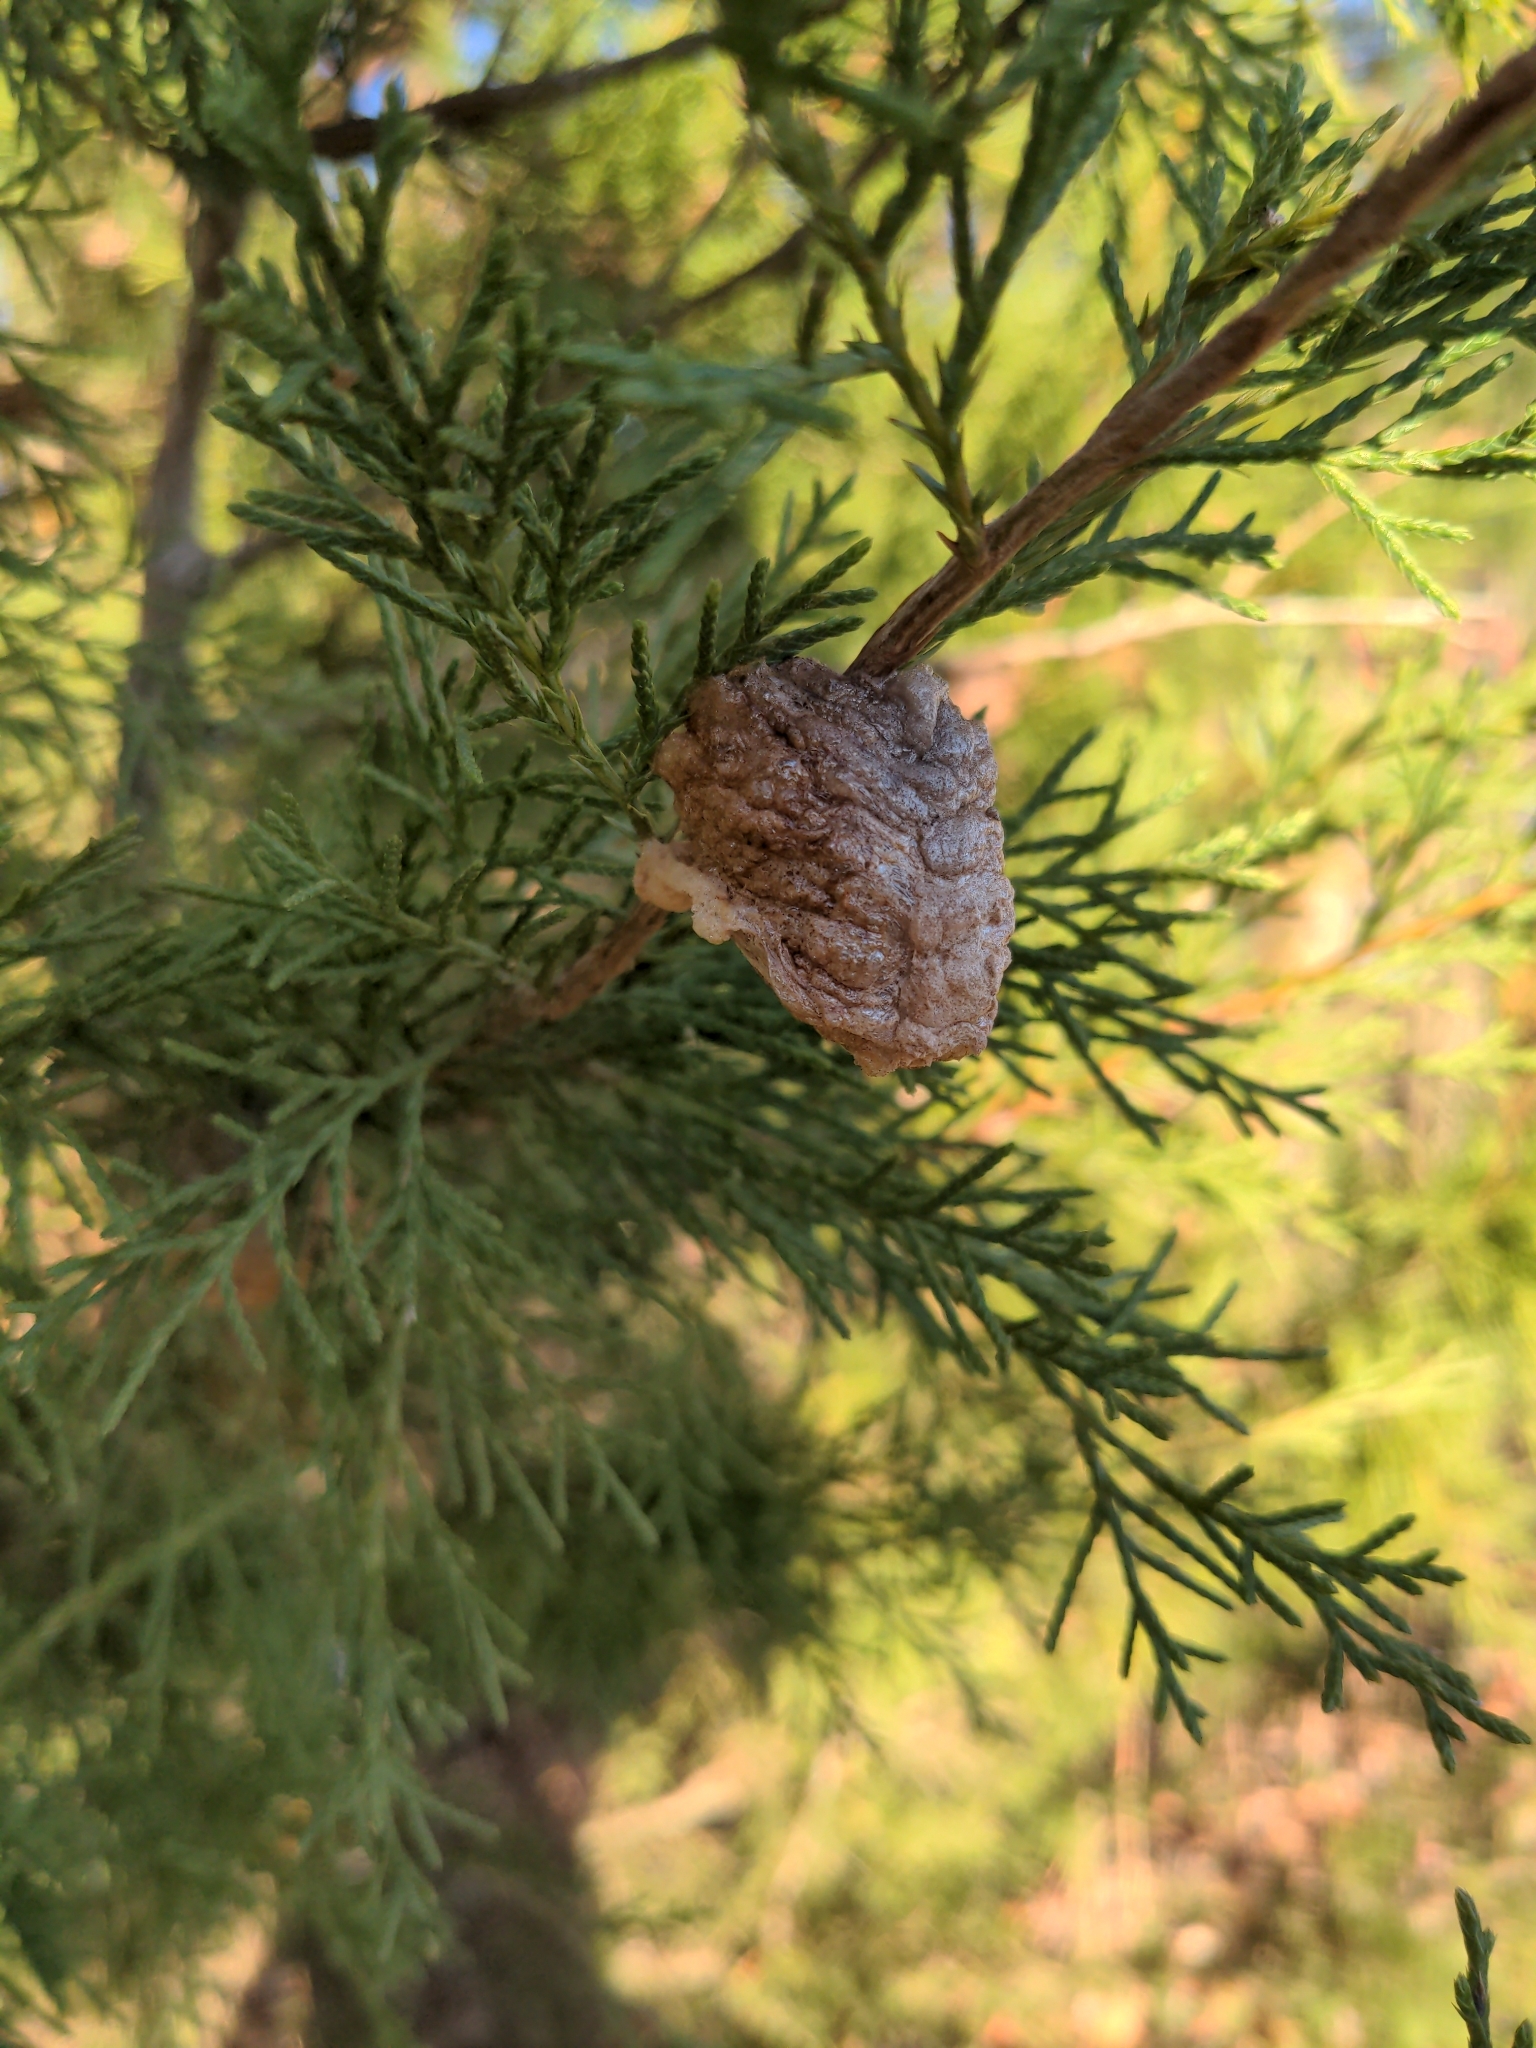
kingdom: Animalia
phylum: Arthropoda
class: Insecta
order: Mantodea
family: Mantidae
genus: Tenodera
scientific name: Tenodera sinensis
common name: Chinese mantis
